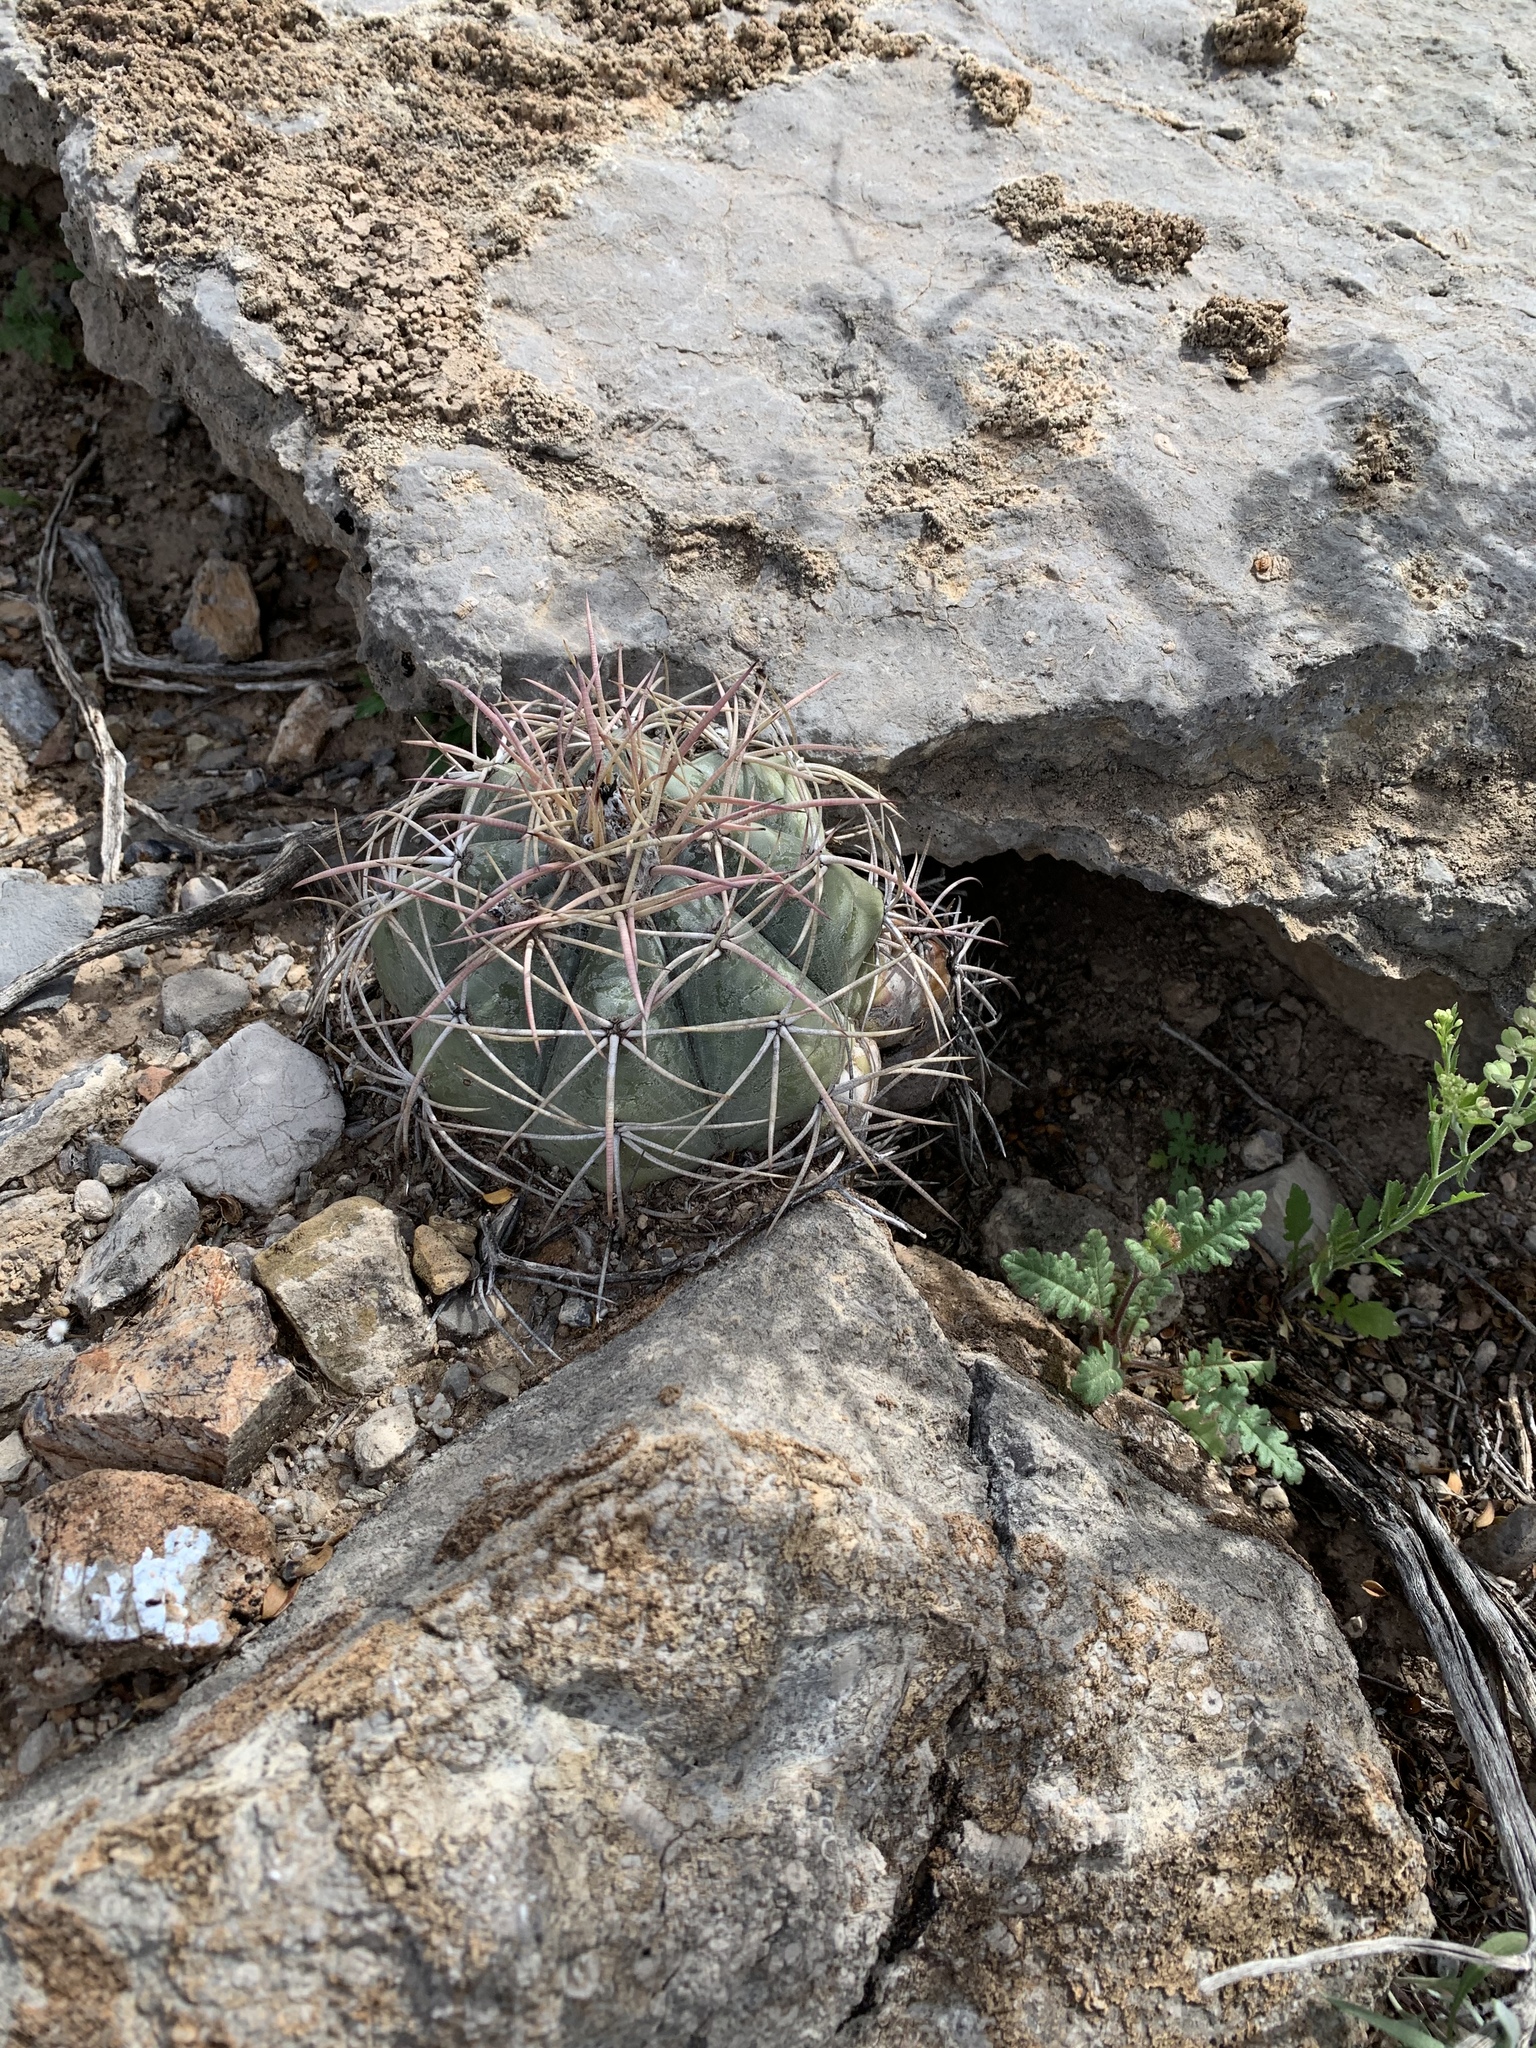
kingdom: Plantae
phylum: Tracheophyta
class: Magnoliopsida
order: Caryophyllales
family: Cactaceae
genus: Echinocactus
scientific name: Echinocactus horizonthalonius
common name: Devilshead
